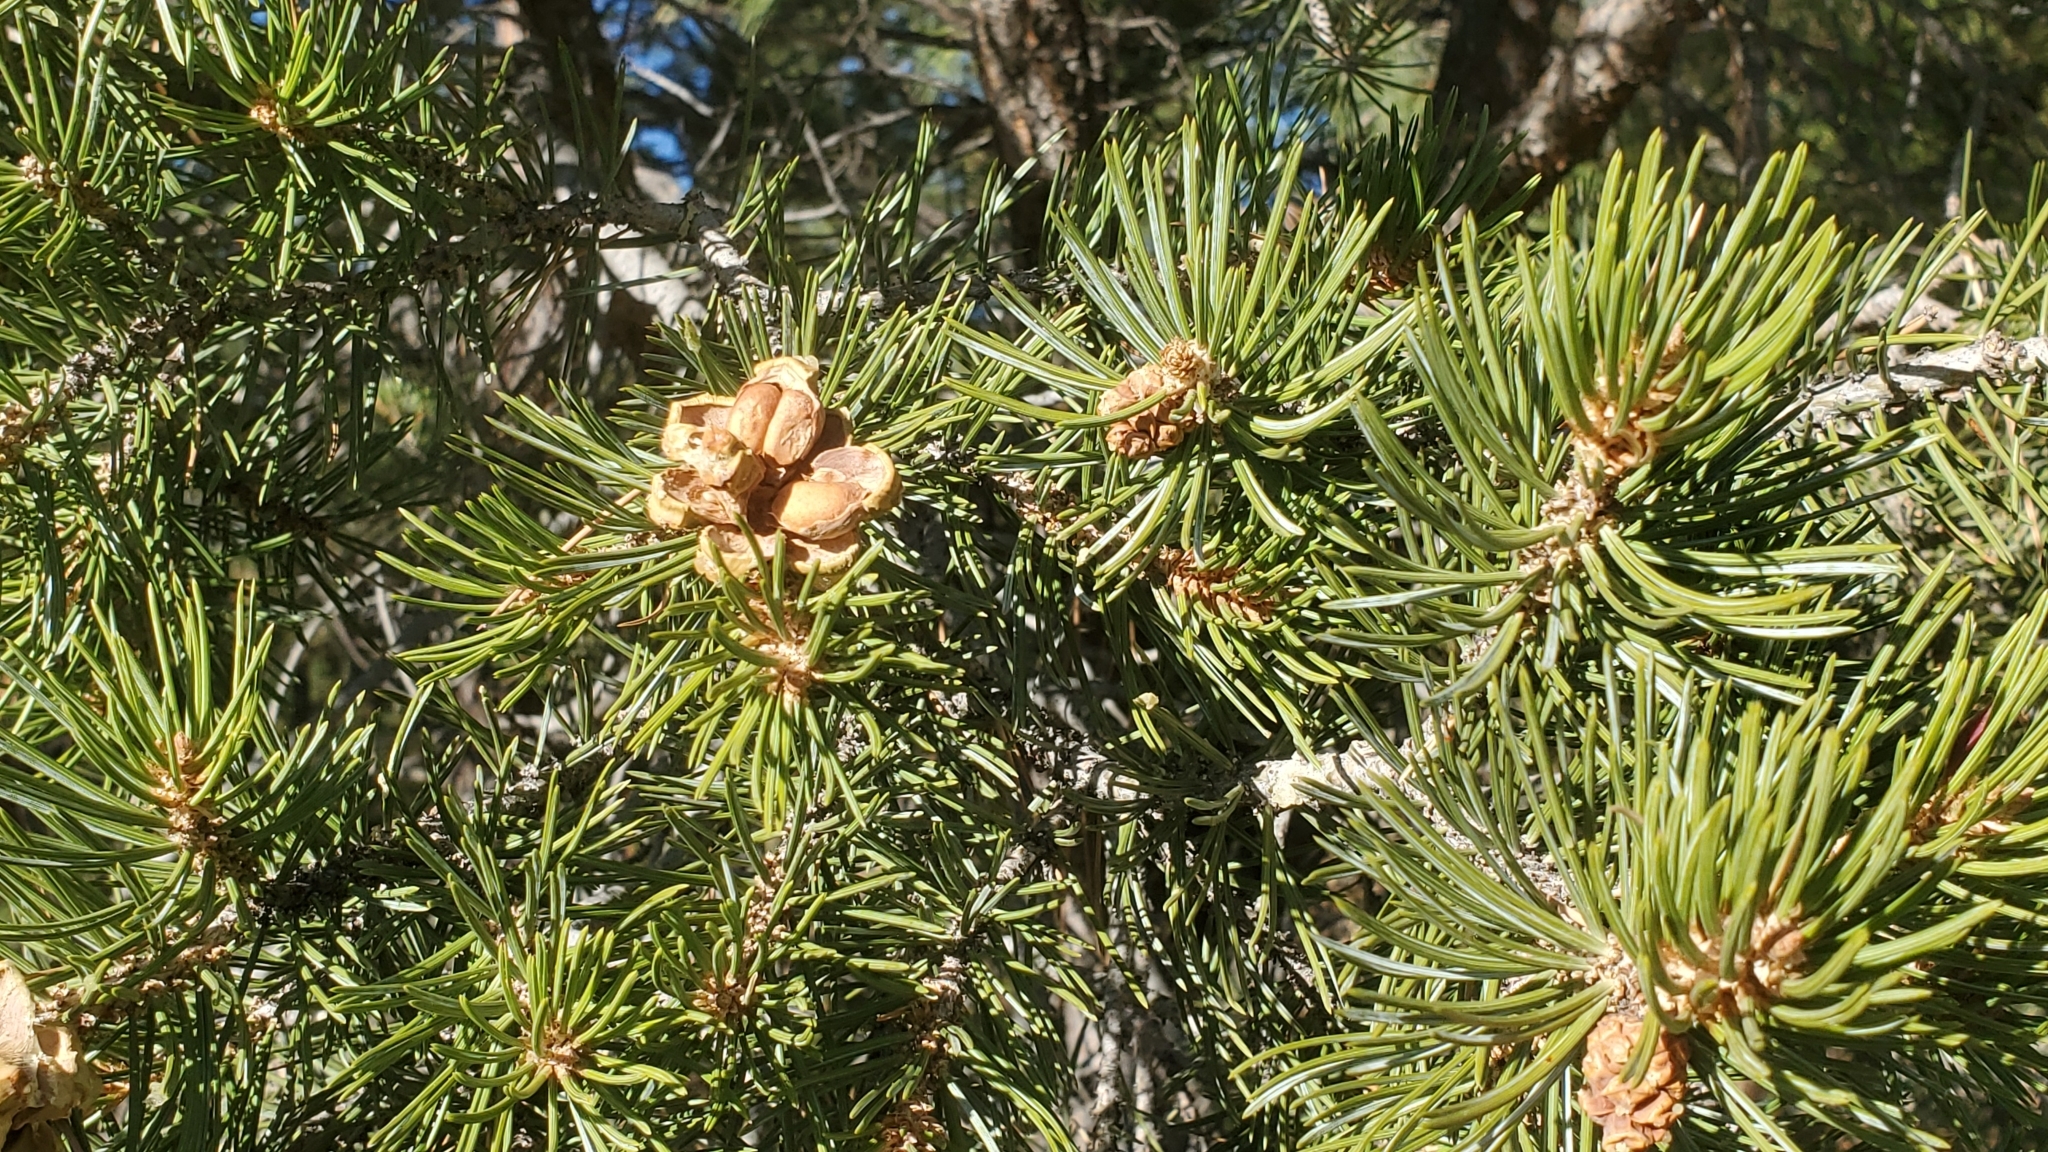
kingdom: Plantae
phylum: Tracheophyta
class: Pinopsida
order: Pinales
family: Pinaceae
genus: Pinus
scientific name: Pinus edulis
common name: Colorado pinyon
